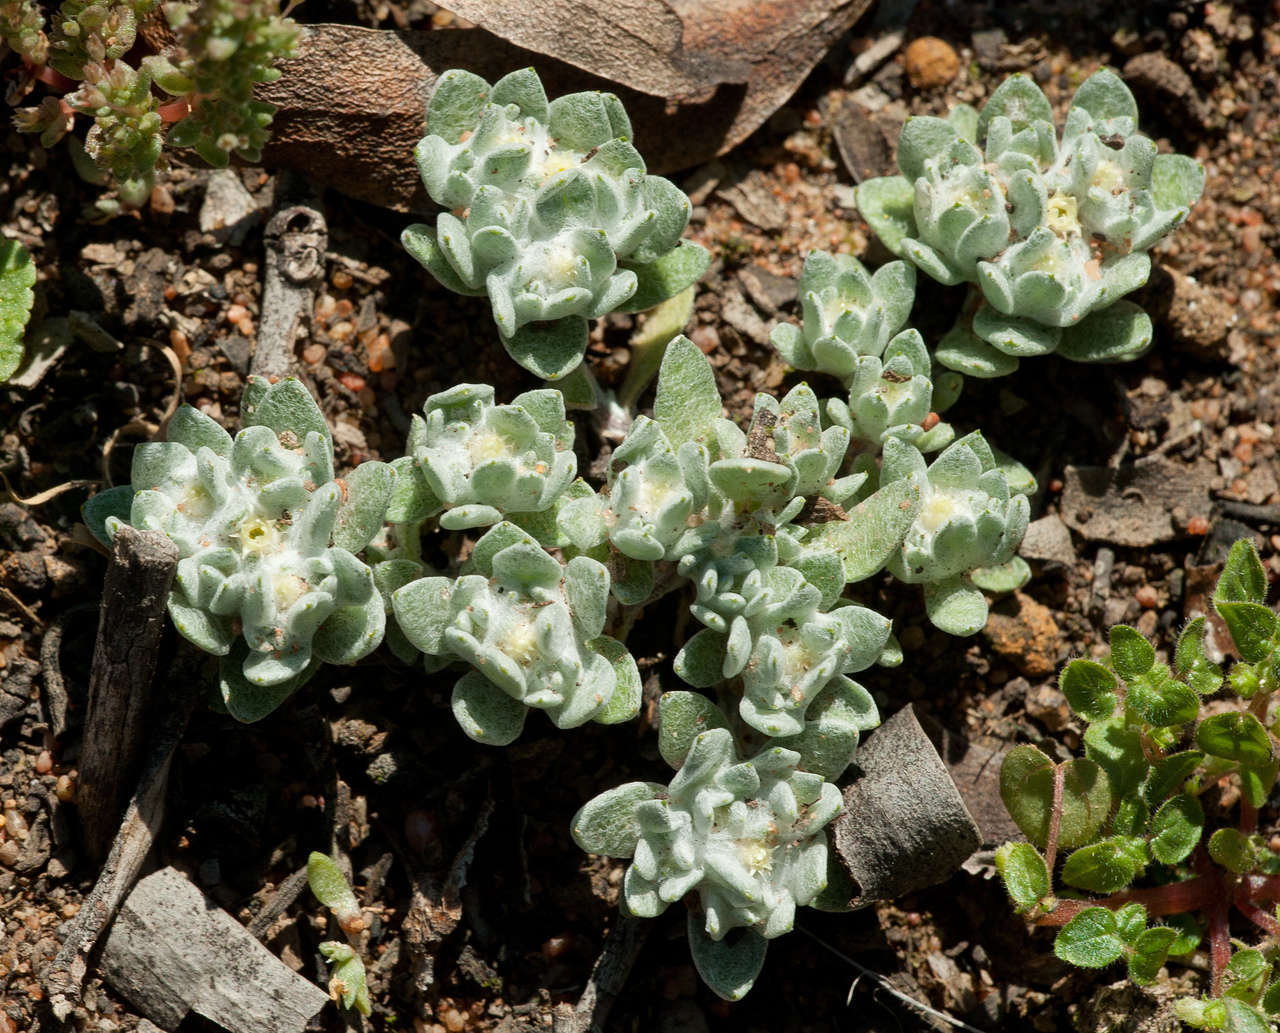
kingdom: Plantae
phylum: Tracheophyta
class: Magnoliopsida
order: Asterales
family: Asteraceae
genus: Actinobole
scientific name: Actinobole uliginosum
